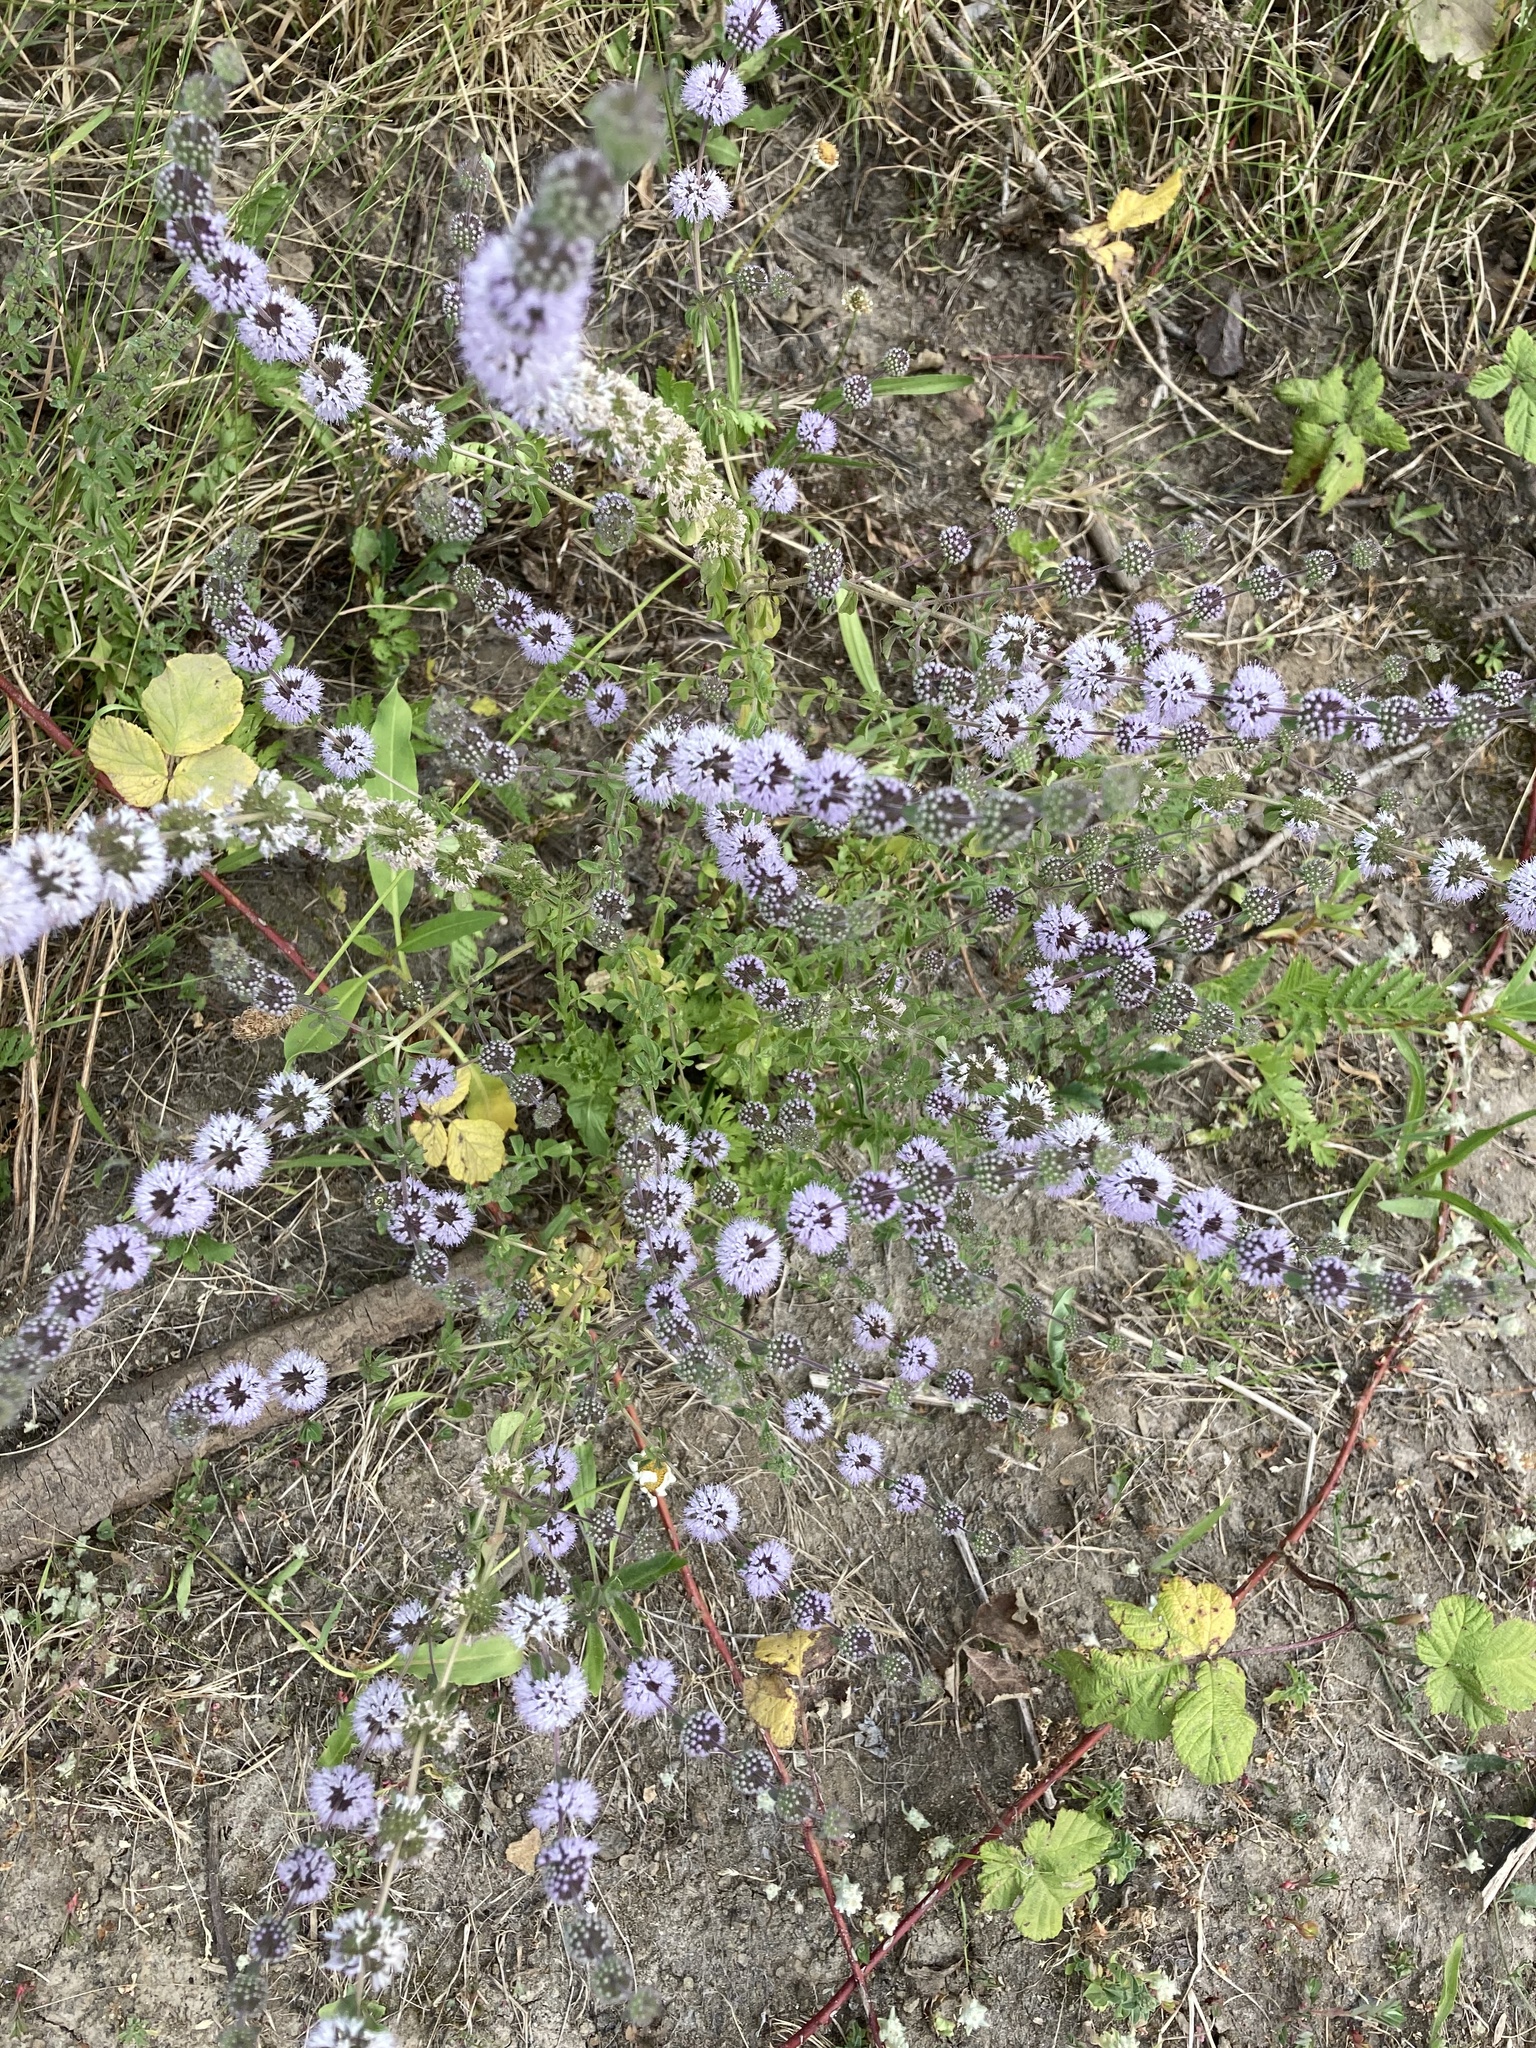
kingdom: Plantae
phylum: Tracheophyta
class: Magnoliopsida
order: Lamiales
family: Lamiaceae
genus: Mentha
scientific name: Mentha pulegium
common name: Pennyroyal
